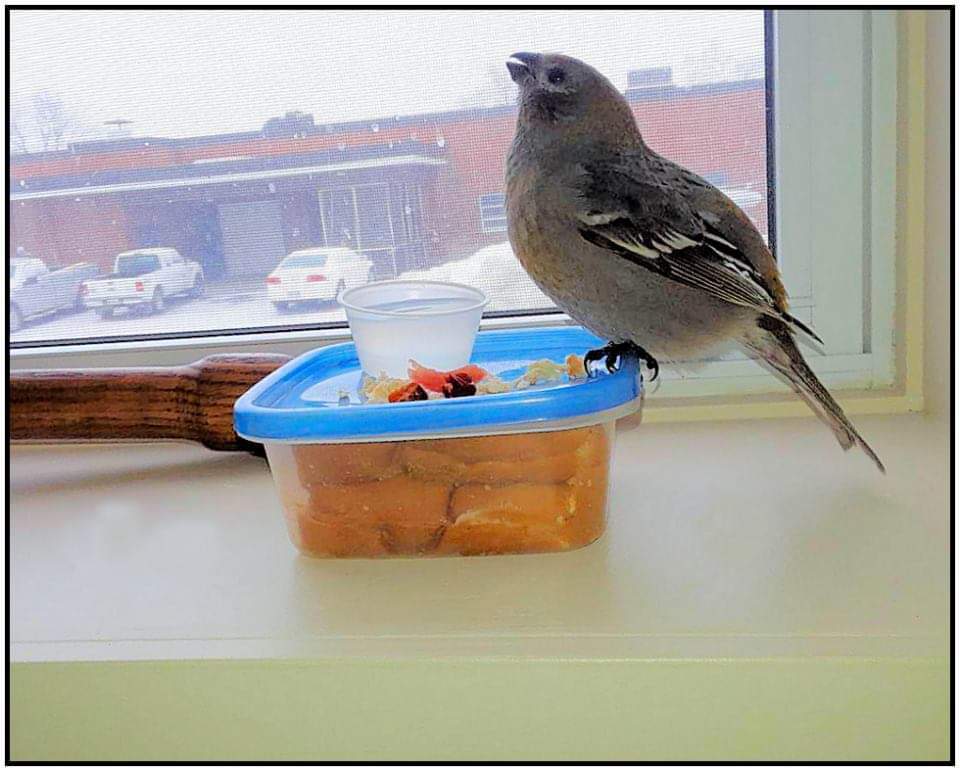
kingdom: Animalia
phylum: Chordata
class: Aves
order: Passeriformes
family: Fringillidae
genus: Pinicola
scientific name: Pinicola enucleator
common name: Pine grosbeak
